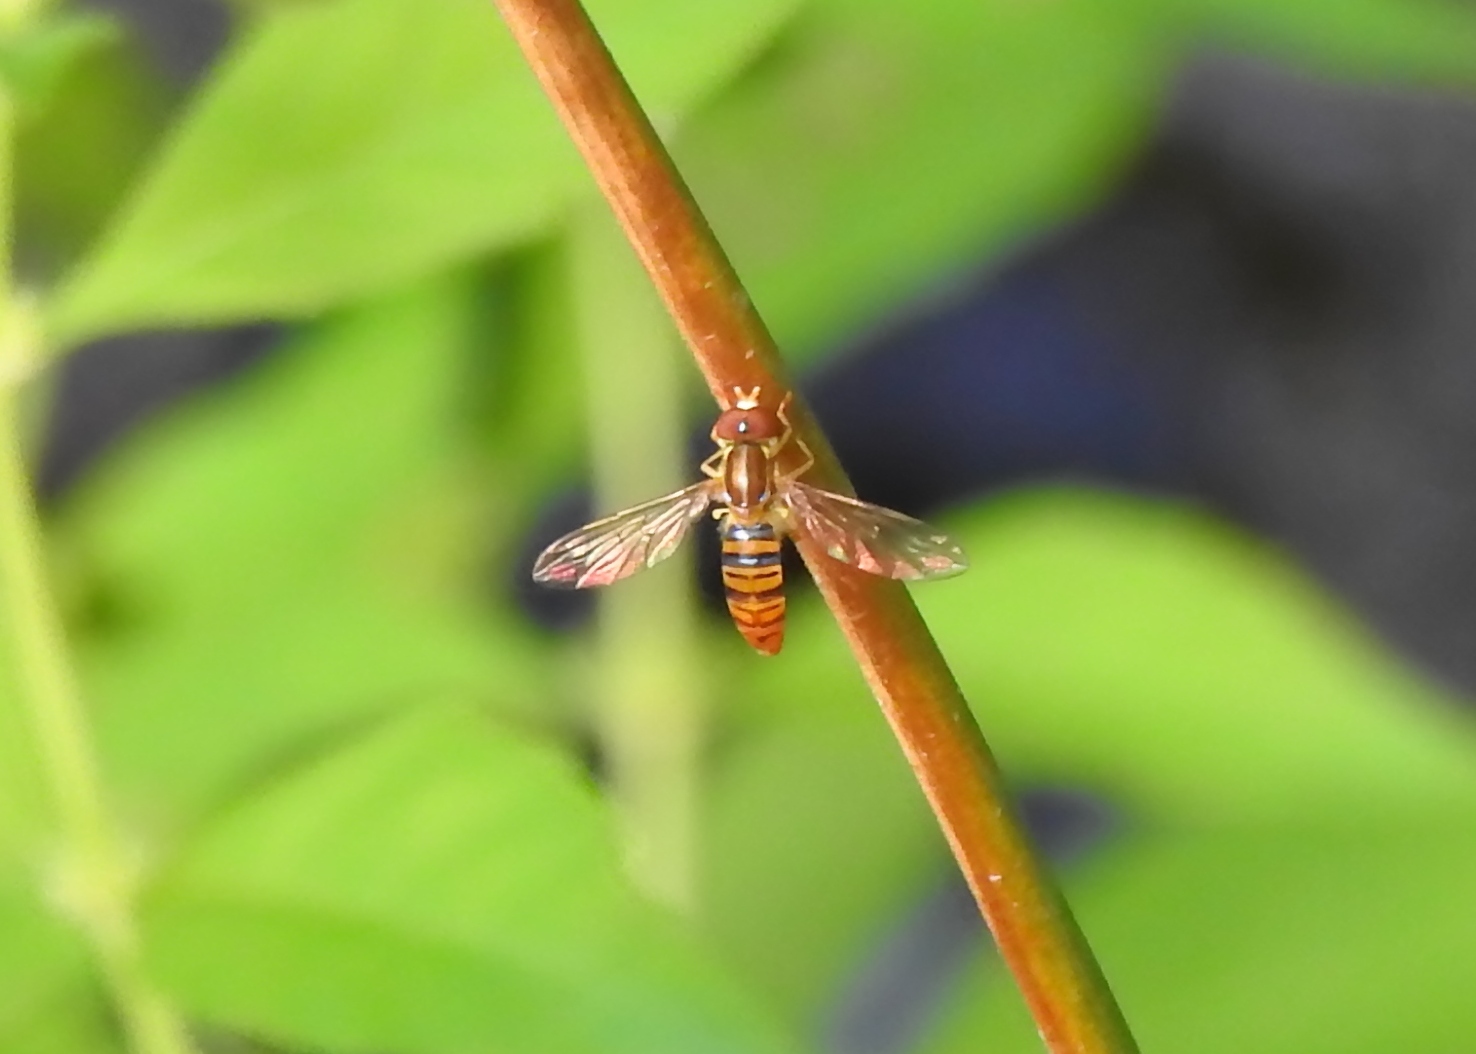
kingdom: Animalia
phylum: Arthropoda
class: Insecta
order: Diptera
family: Syrphidae
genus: Toxomerus
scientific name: Toxomerus politus
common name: Maize calligrapher
